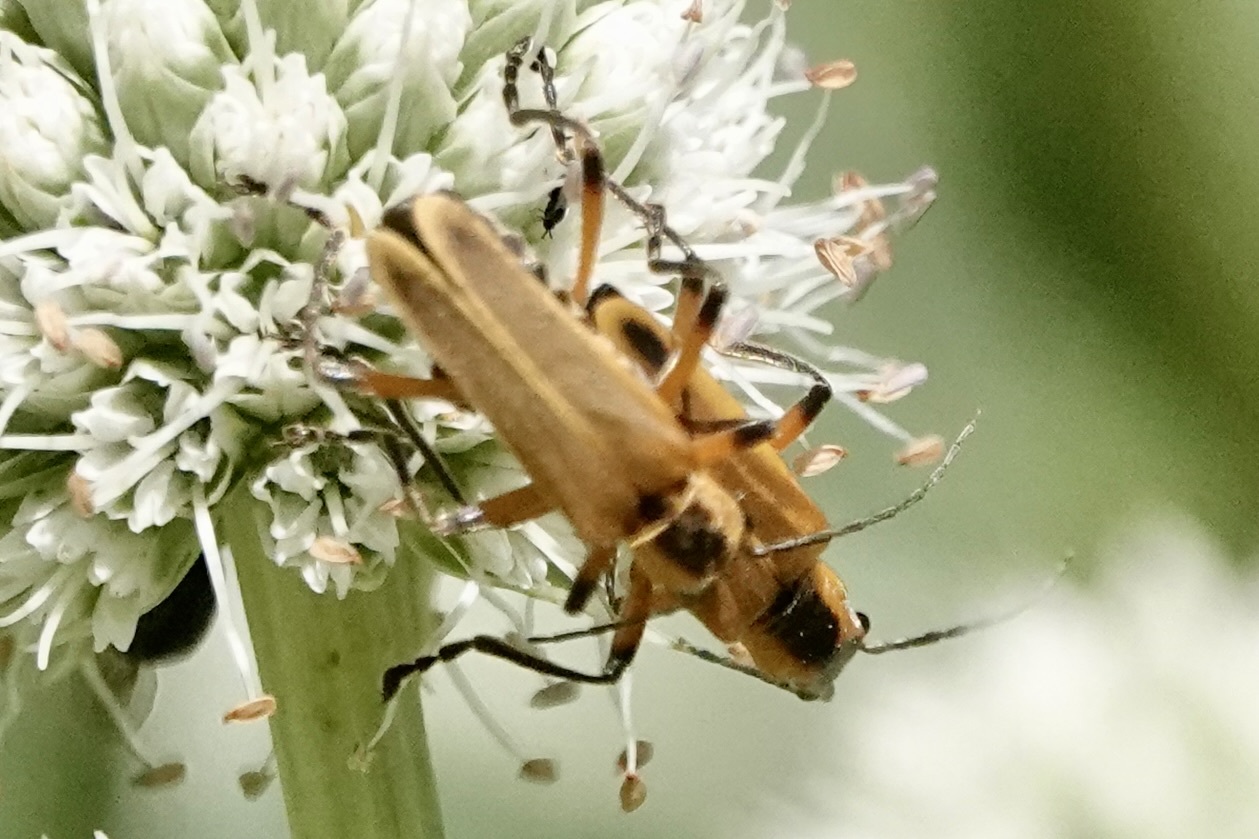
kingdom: Animalia
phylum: Arthropoda
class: Insecta
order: Coleoptera
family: Cantharidae
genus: Chauliognathus
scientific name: Chauliognathus marginatus
